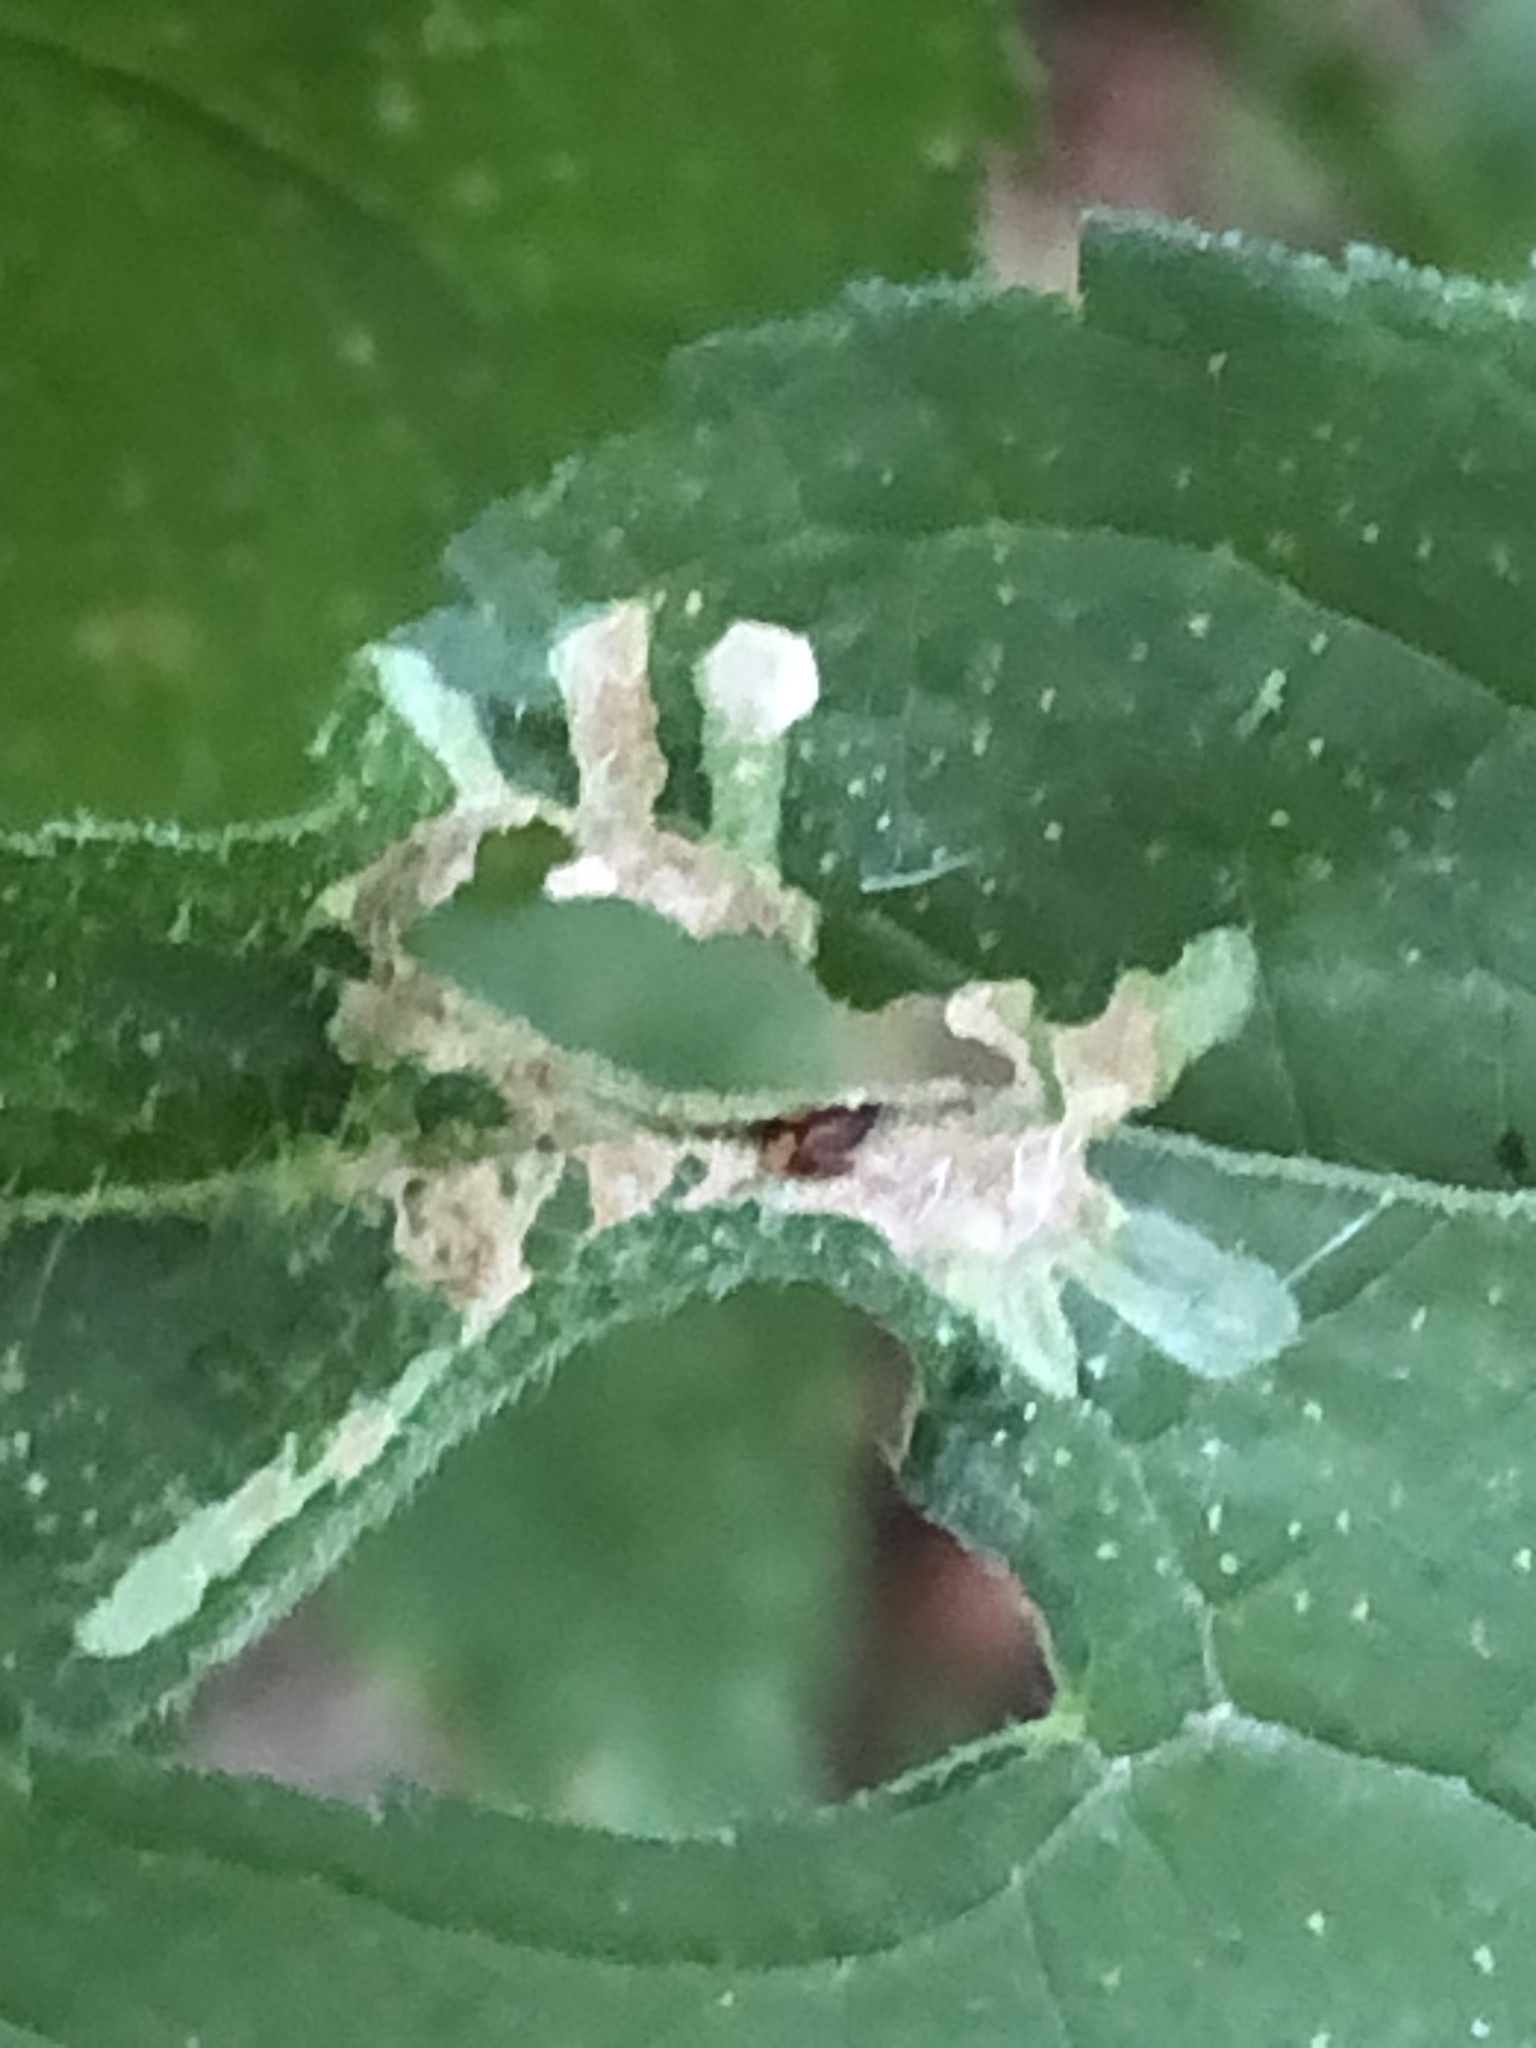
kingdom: Animalia
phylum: Arthropoda
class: Insecta
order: Diptera
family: Agromyzidae
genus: Calycomyza
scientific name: Calycomyza platyptera
